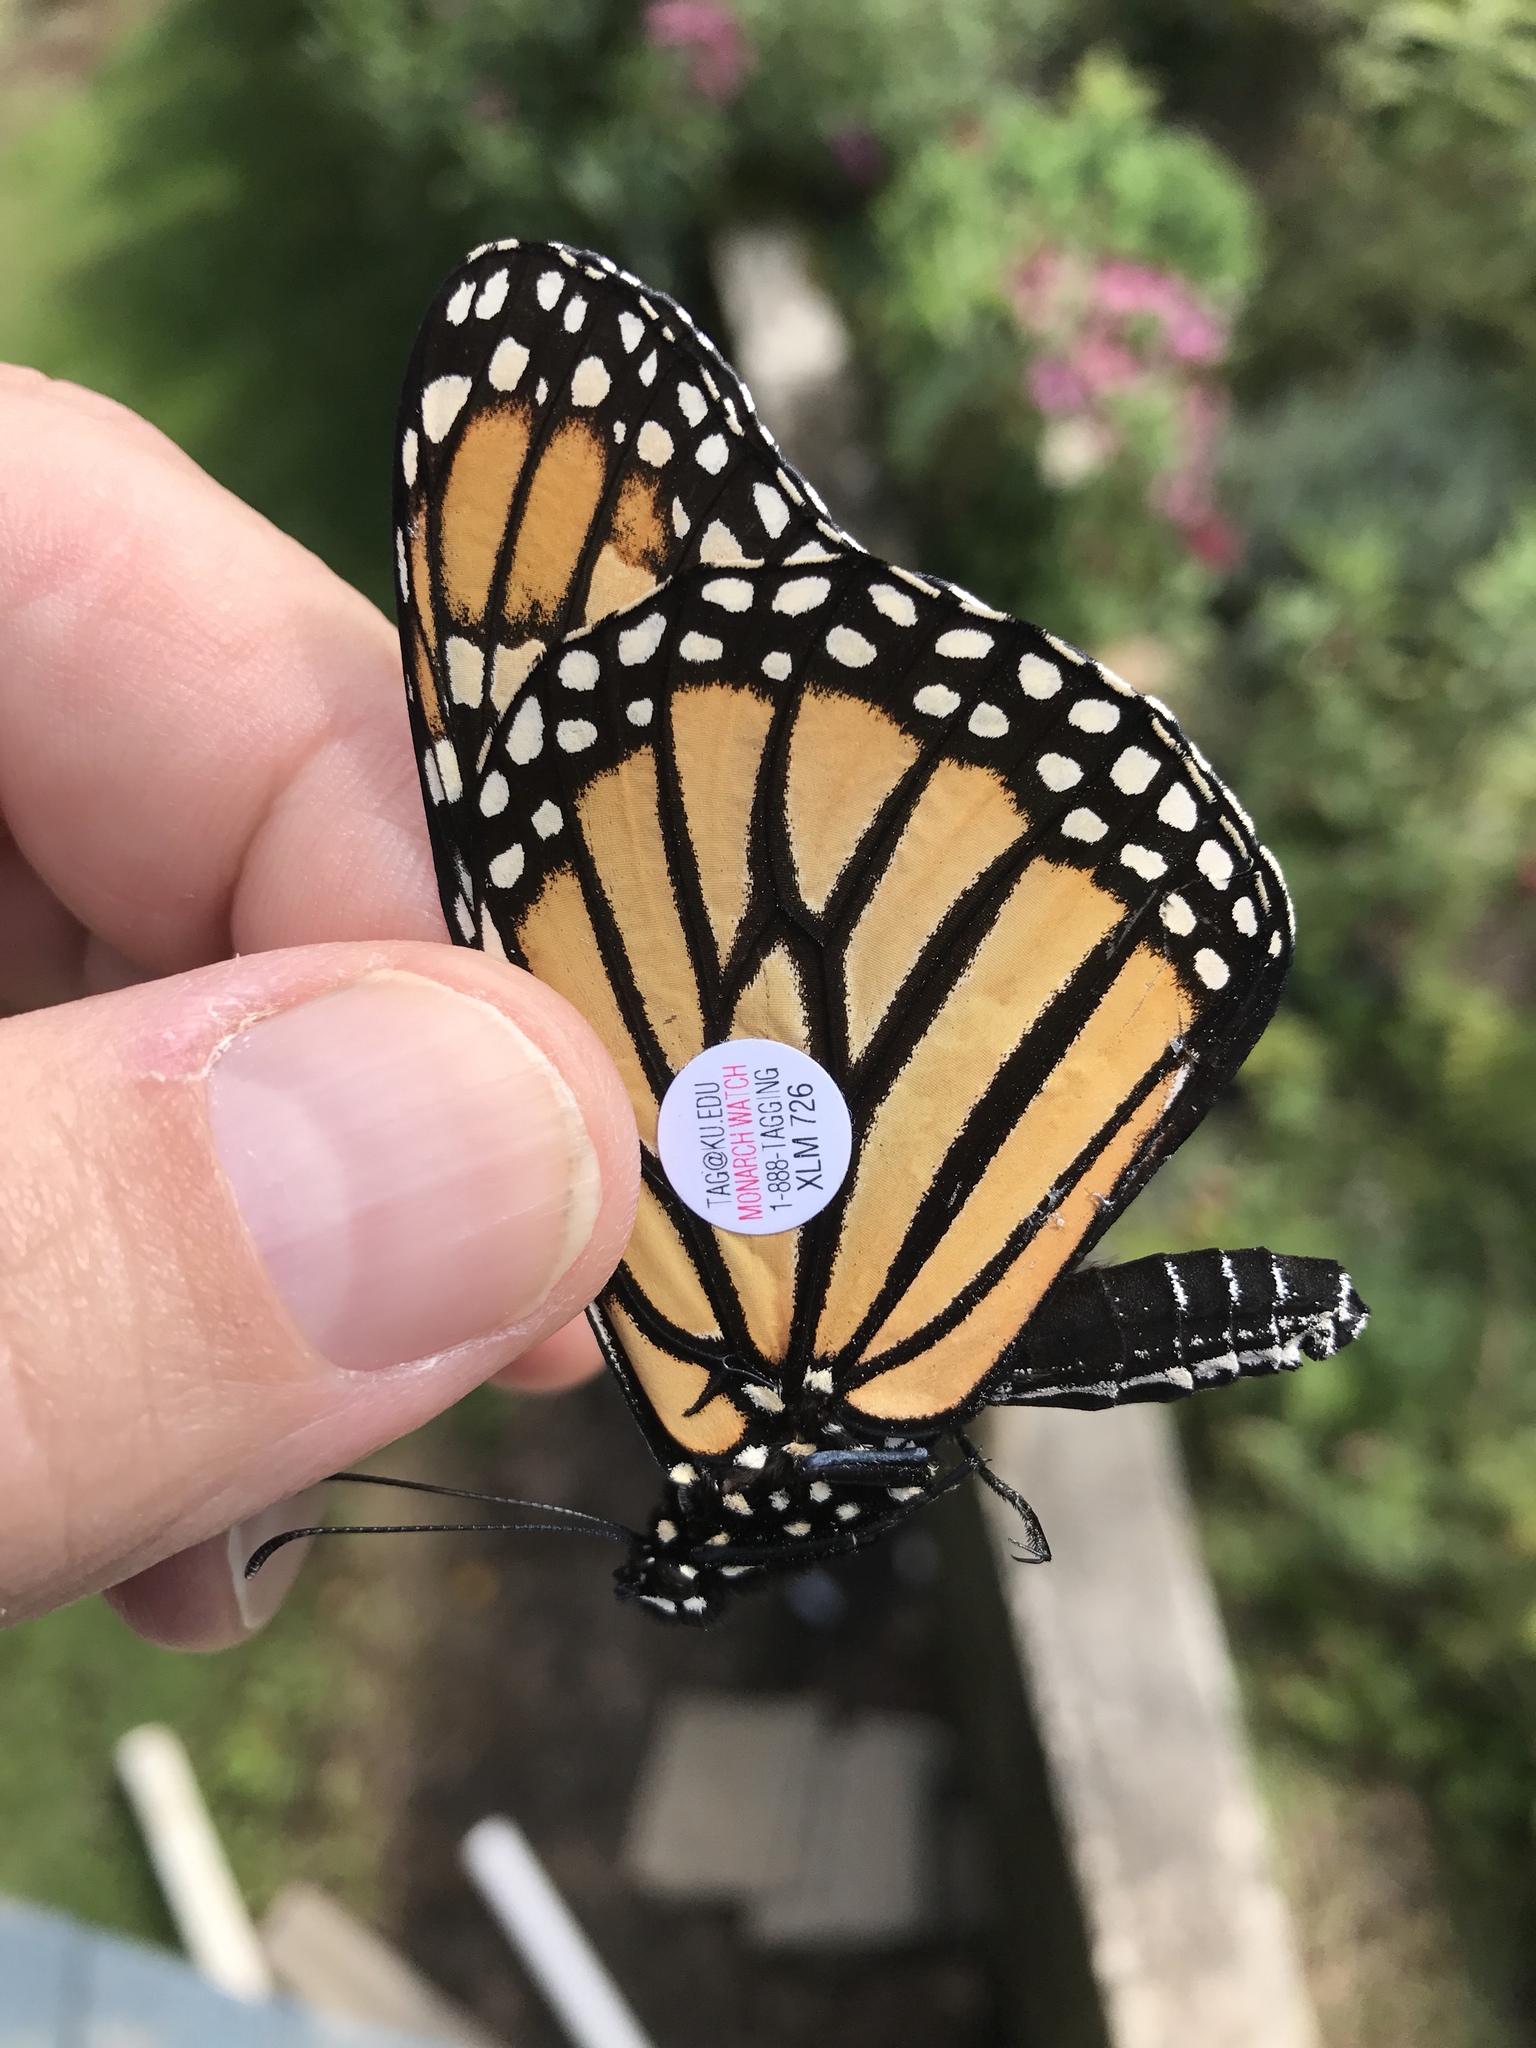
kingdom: Animalia
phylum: Arthropoda
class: Insecta
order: Lepidoptera
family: Nymphalidae
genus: Danaus
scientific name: Danaus plexippus
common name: Monarch
